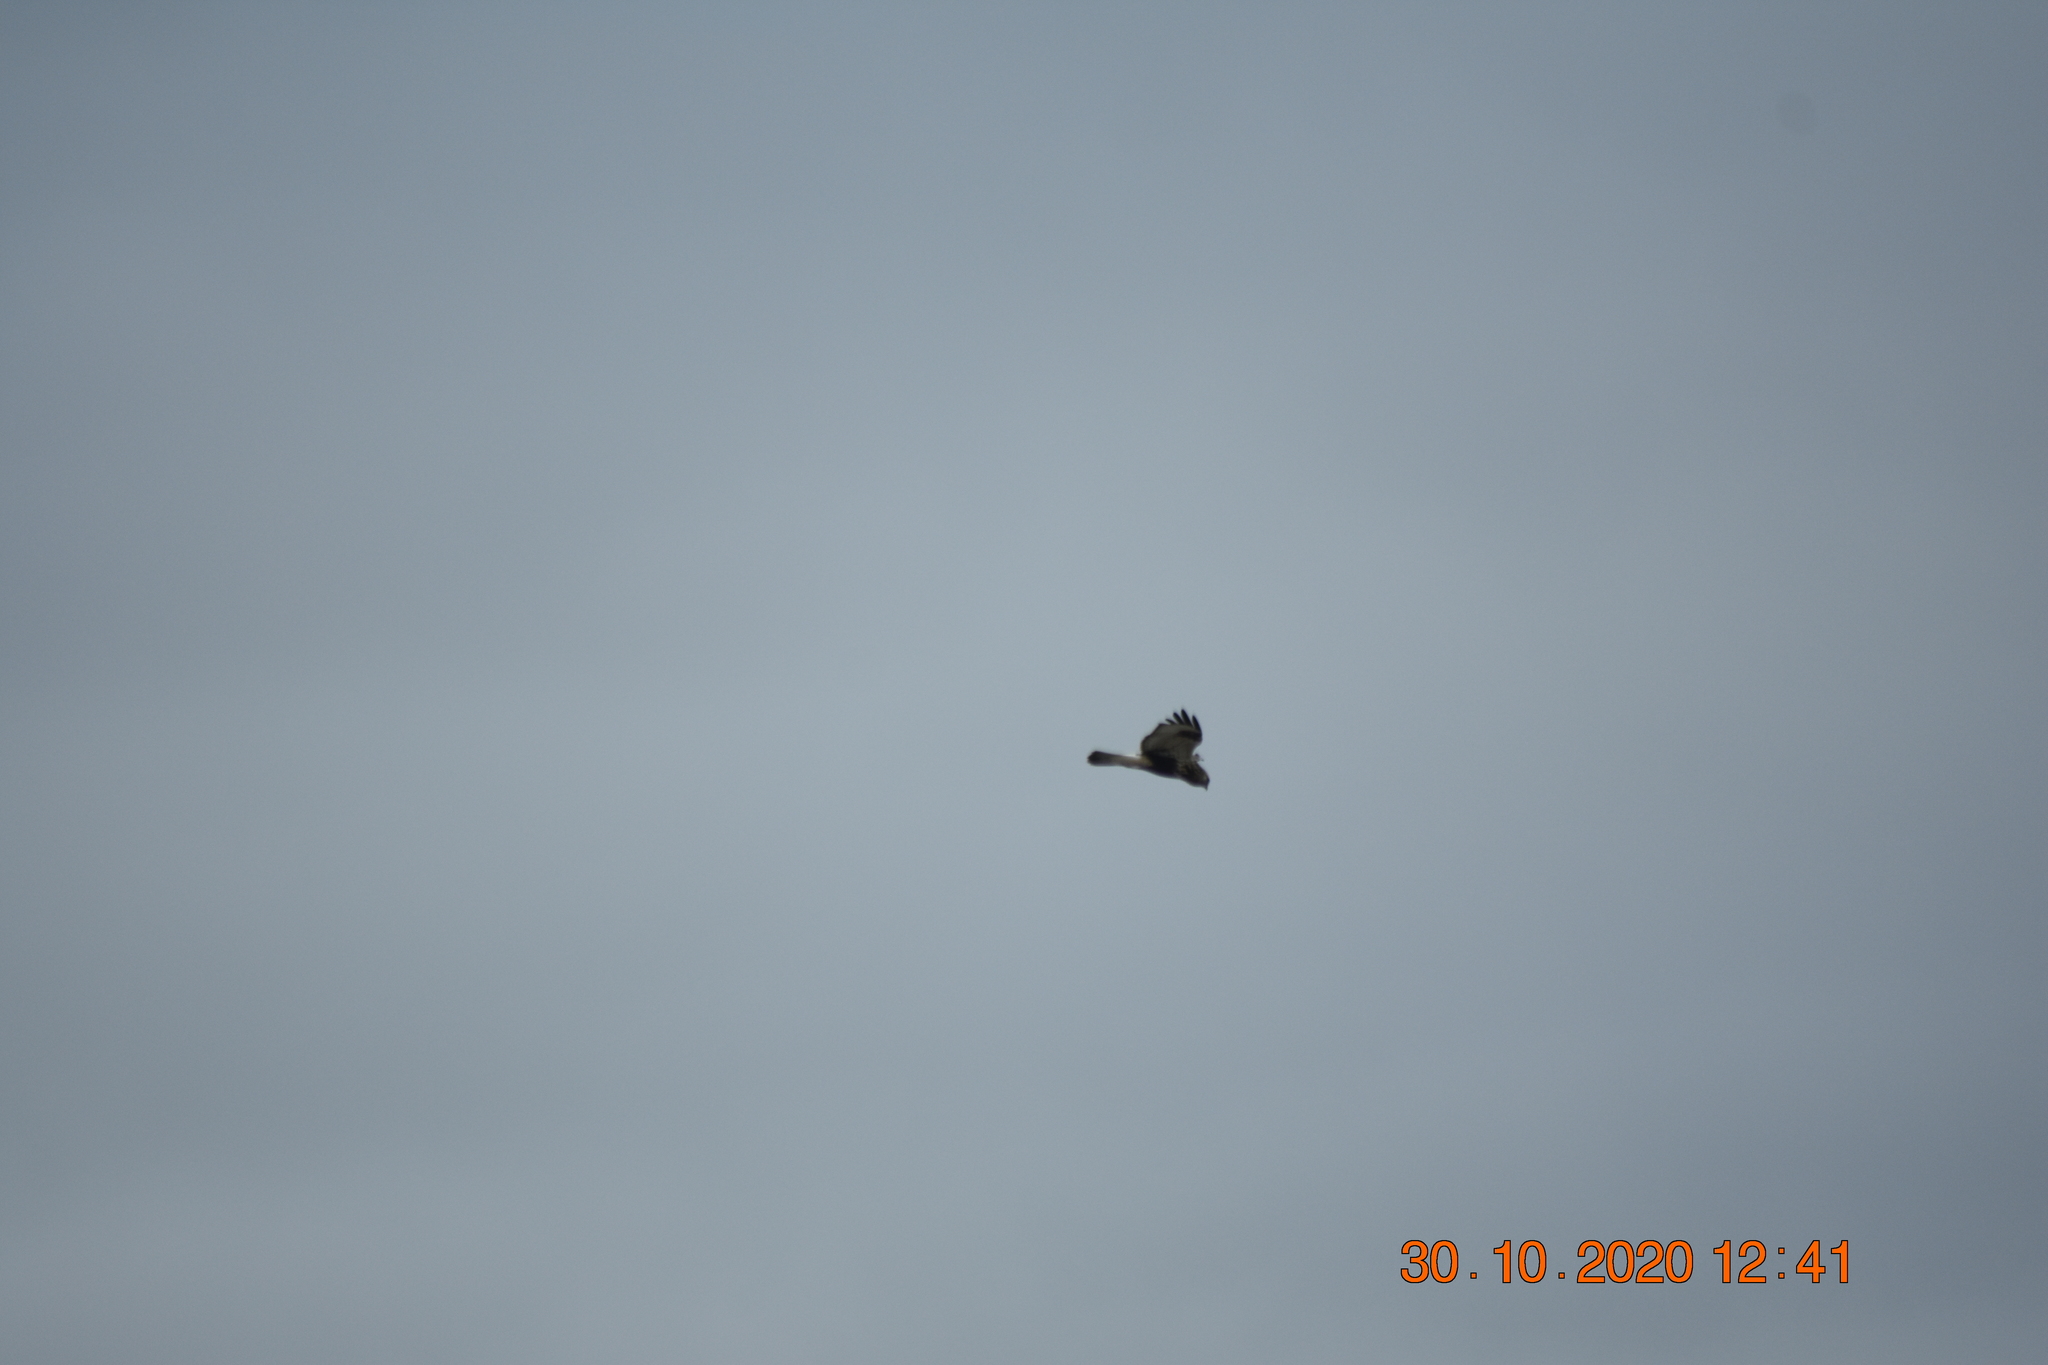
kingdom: Animalia
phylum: Chordata
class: Aves
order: Accipitriformes
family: Accipitridae
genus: Buteo
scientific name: Buteo lagopus
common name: Rough-legged buzzard
